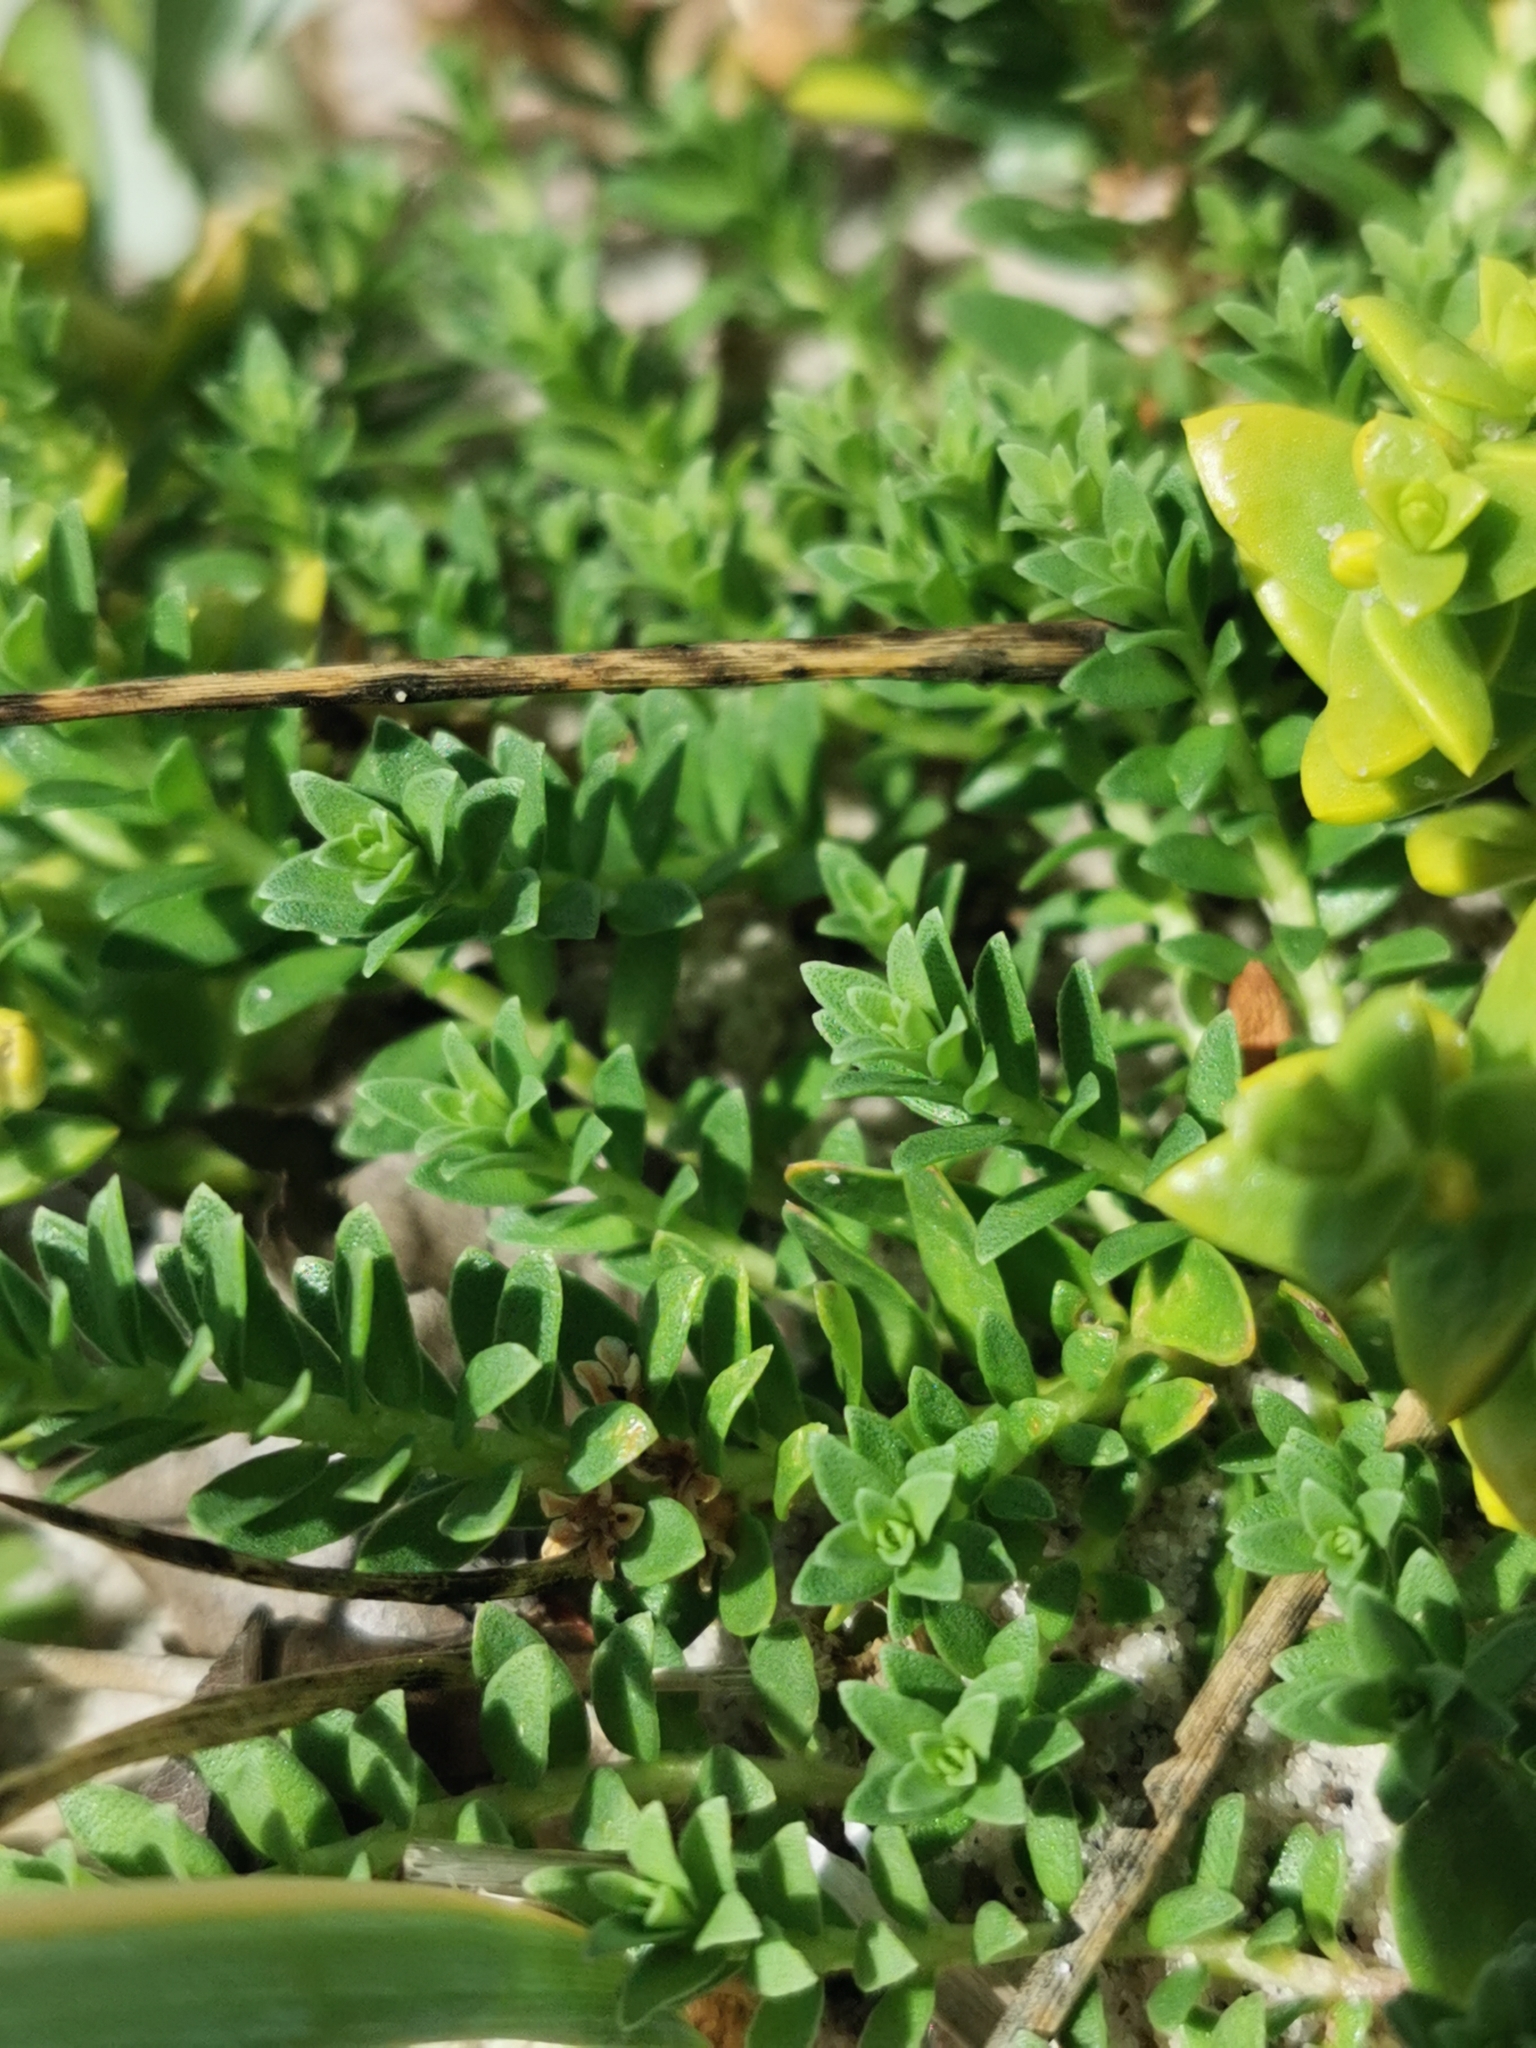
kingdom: Plantae
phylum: Tracheophyta
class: Magnoliopsida
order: Ericales
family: Primulaceae
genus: Lysimachia
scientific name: Lysimachia maritima
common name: Sea milkwort
